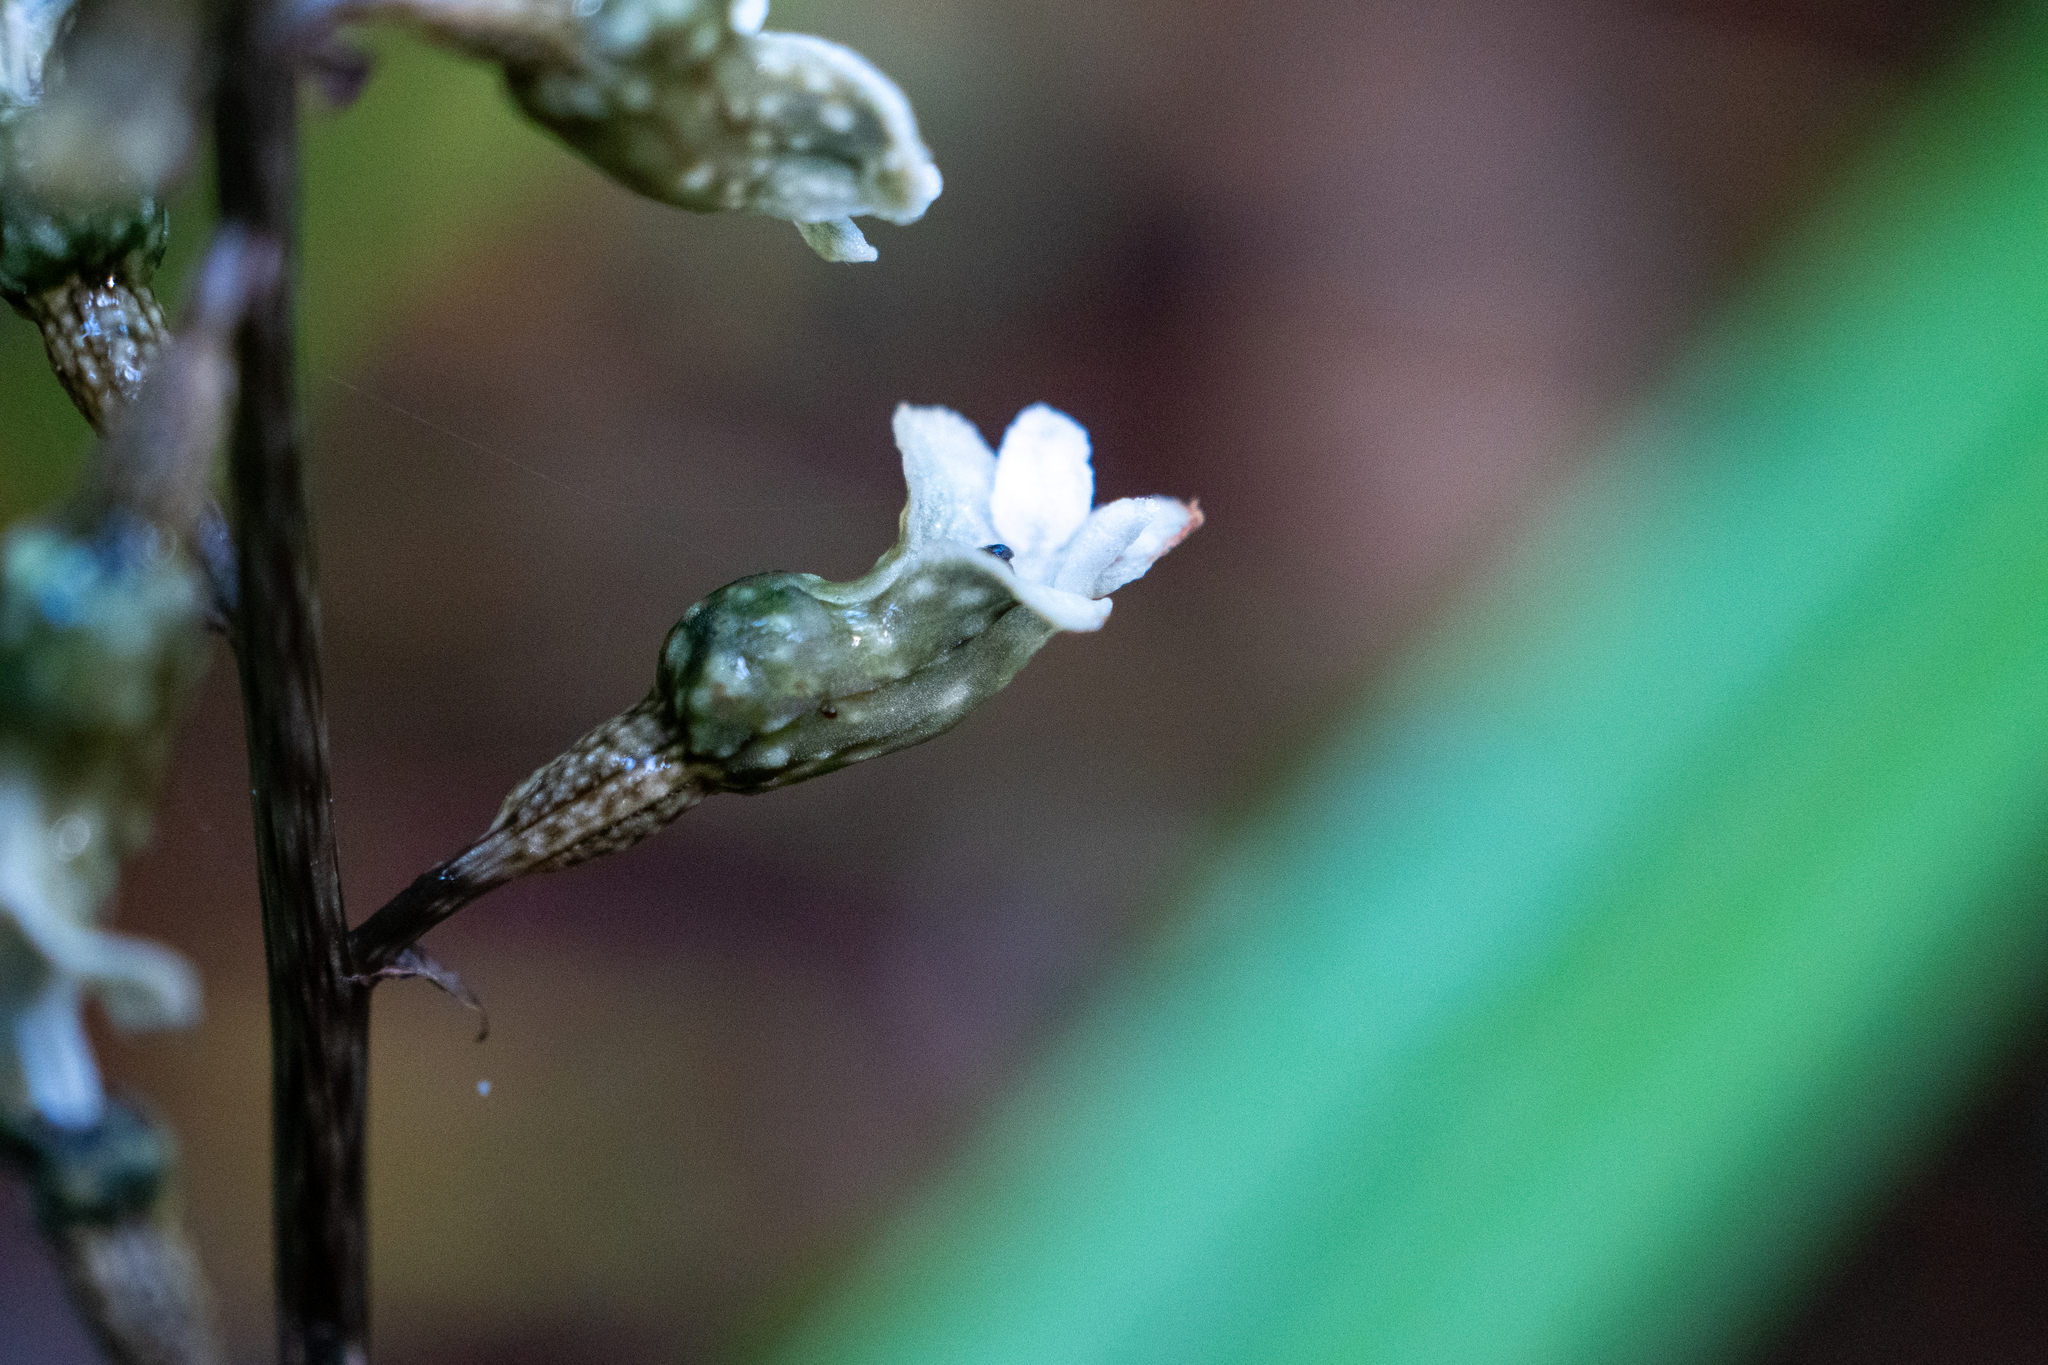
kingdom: Plantae
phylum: Tracheophyta
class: Liliopsida
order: Asparagales
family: Orchidaceae
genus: Gastrodia
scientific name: Gastrodia cunninghamii
